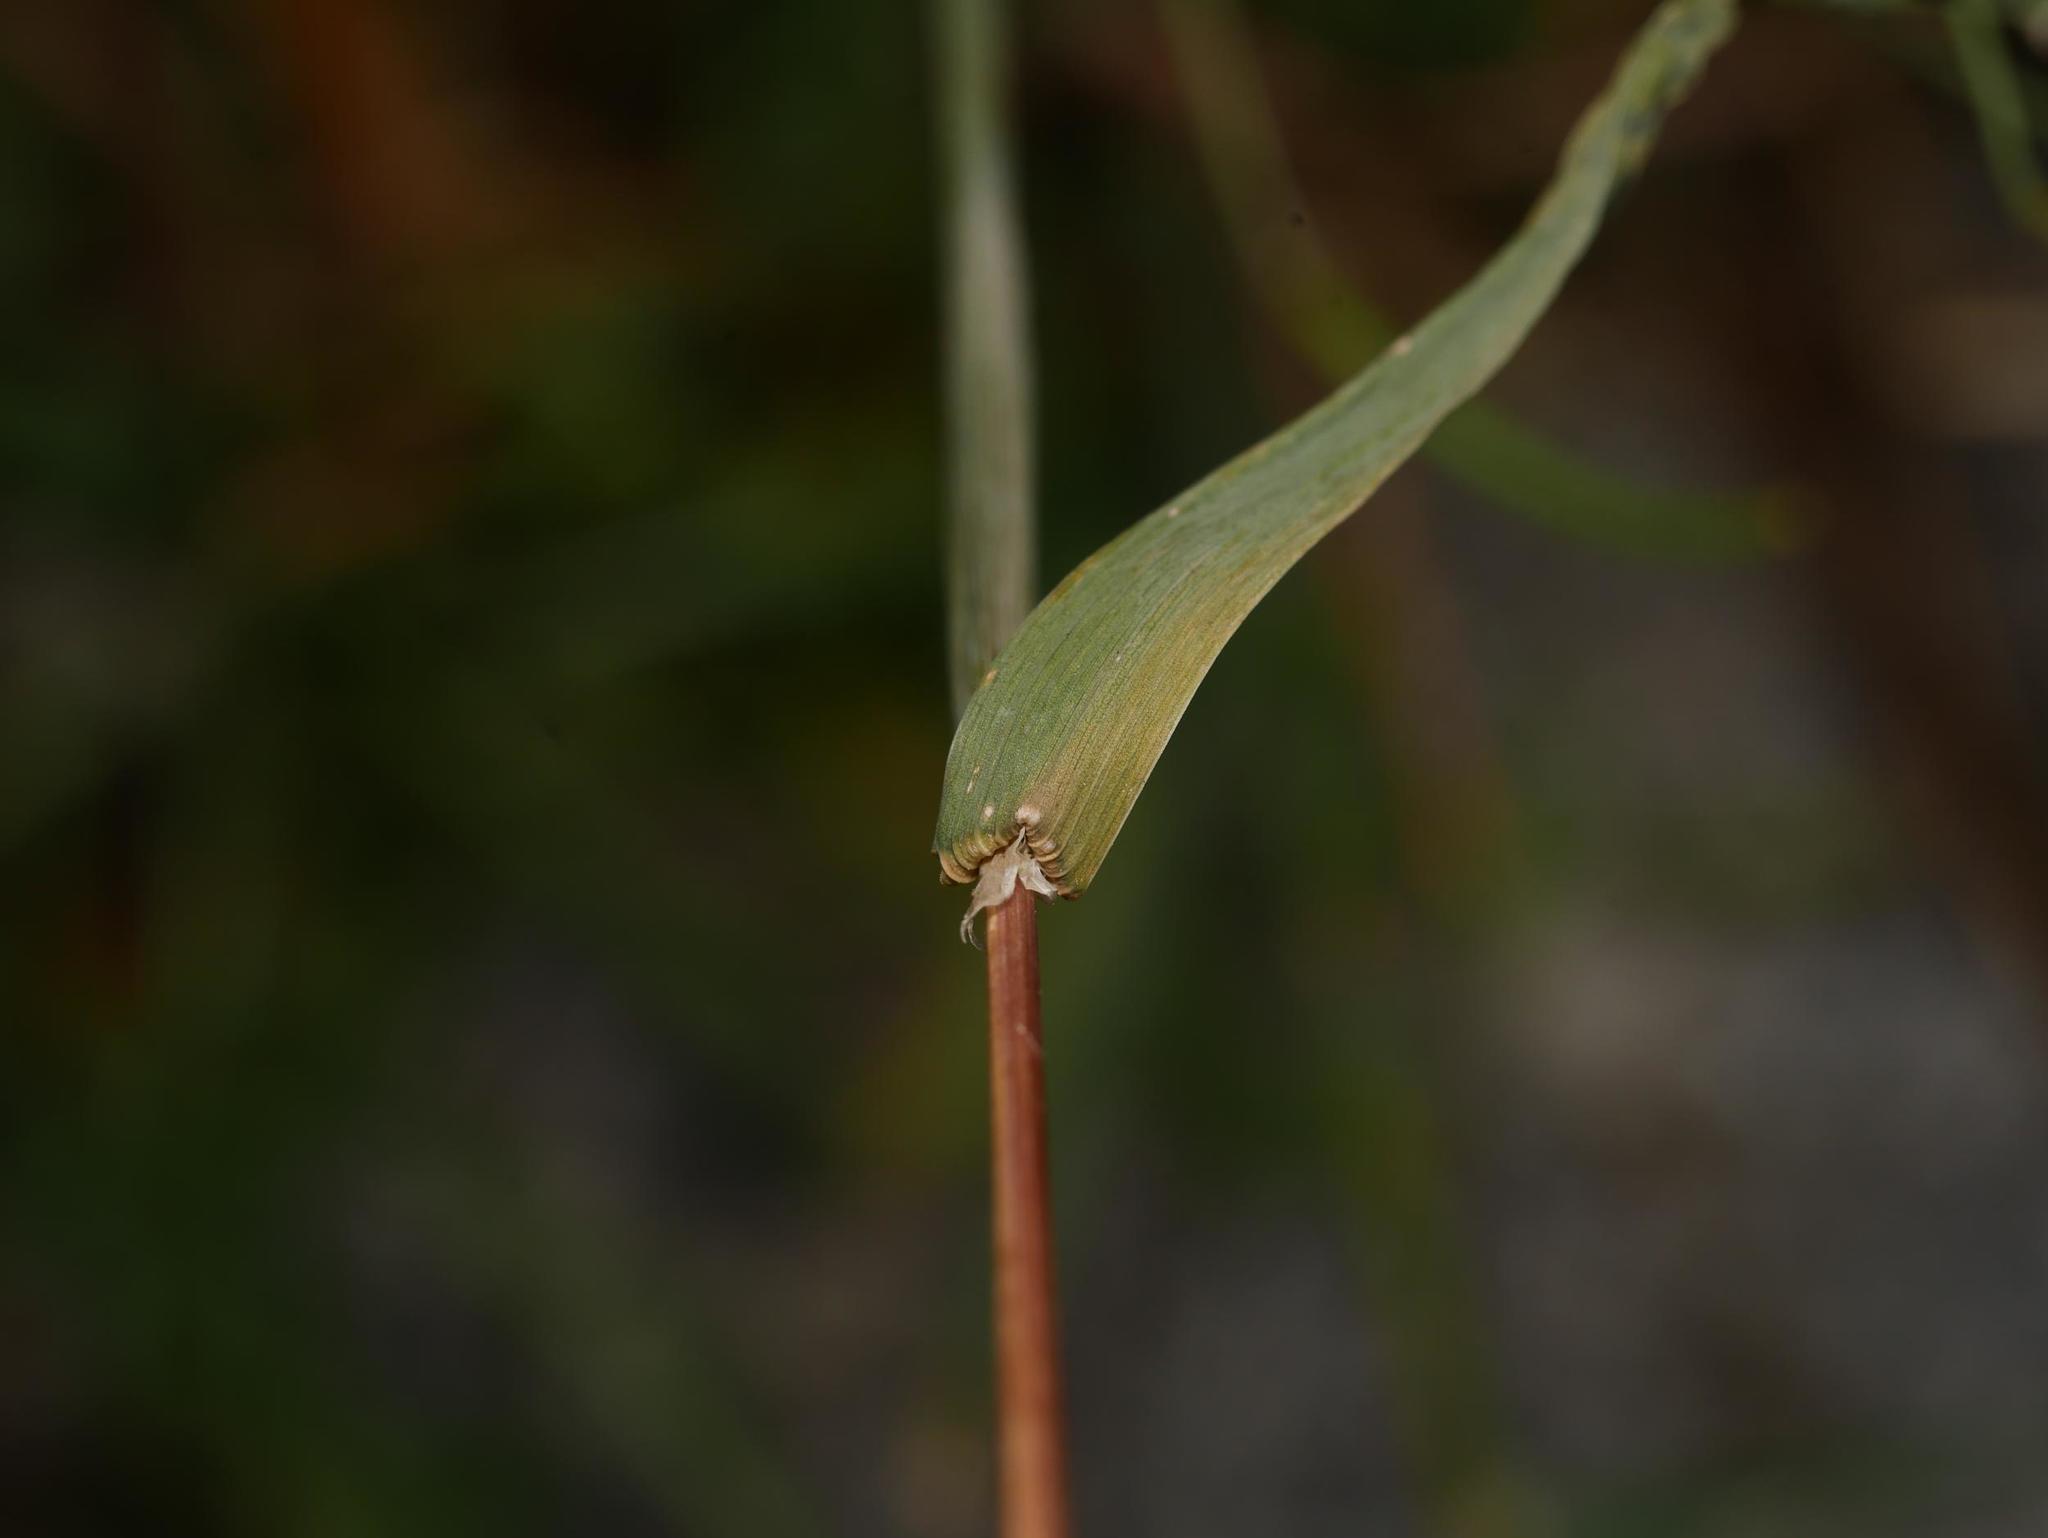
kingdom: Plantae
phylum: Tracheophyta
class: Liliopsida
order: Poales
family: Poaceae
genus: Dactylis
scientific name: Dactylis glomerata
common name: Orchardgrass
